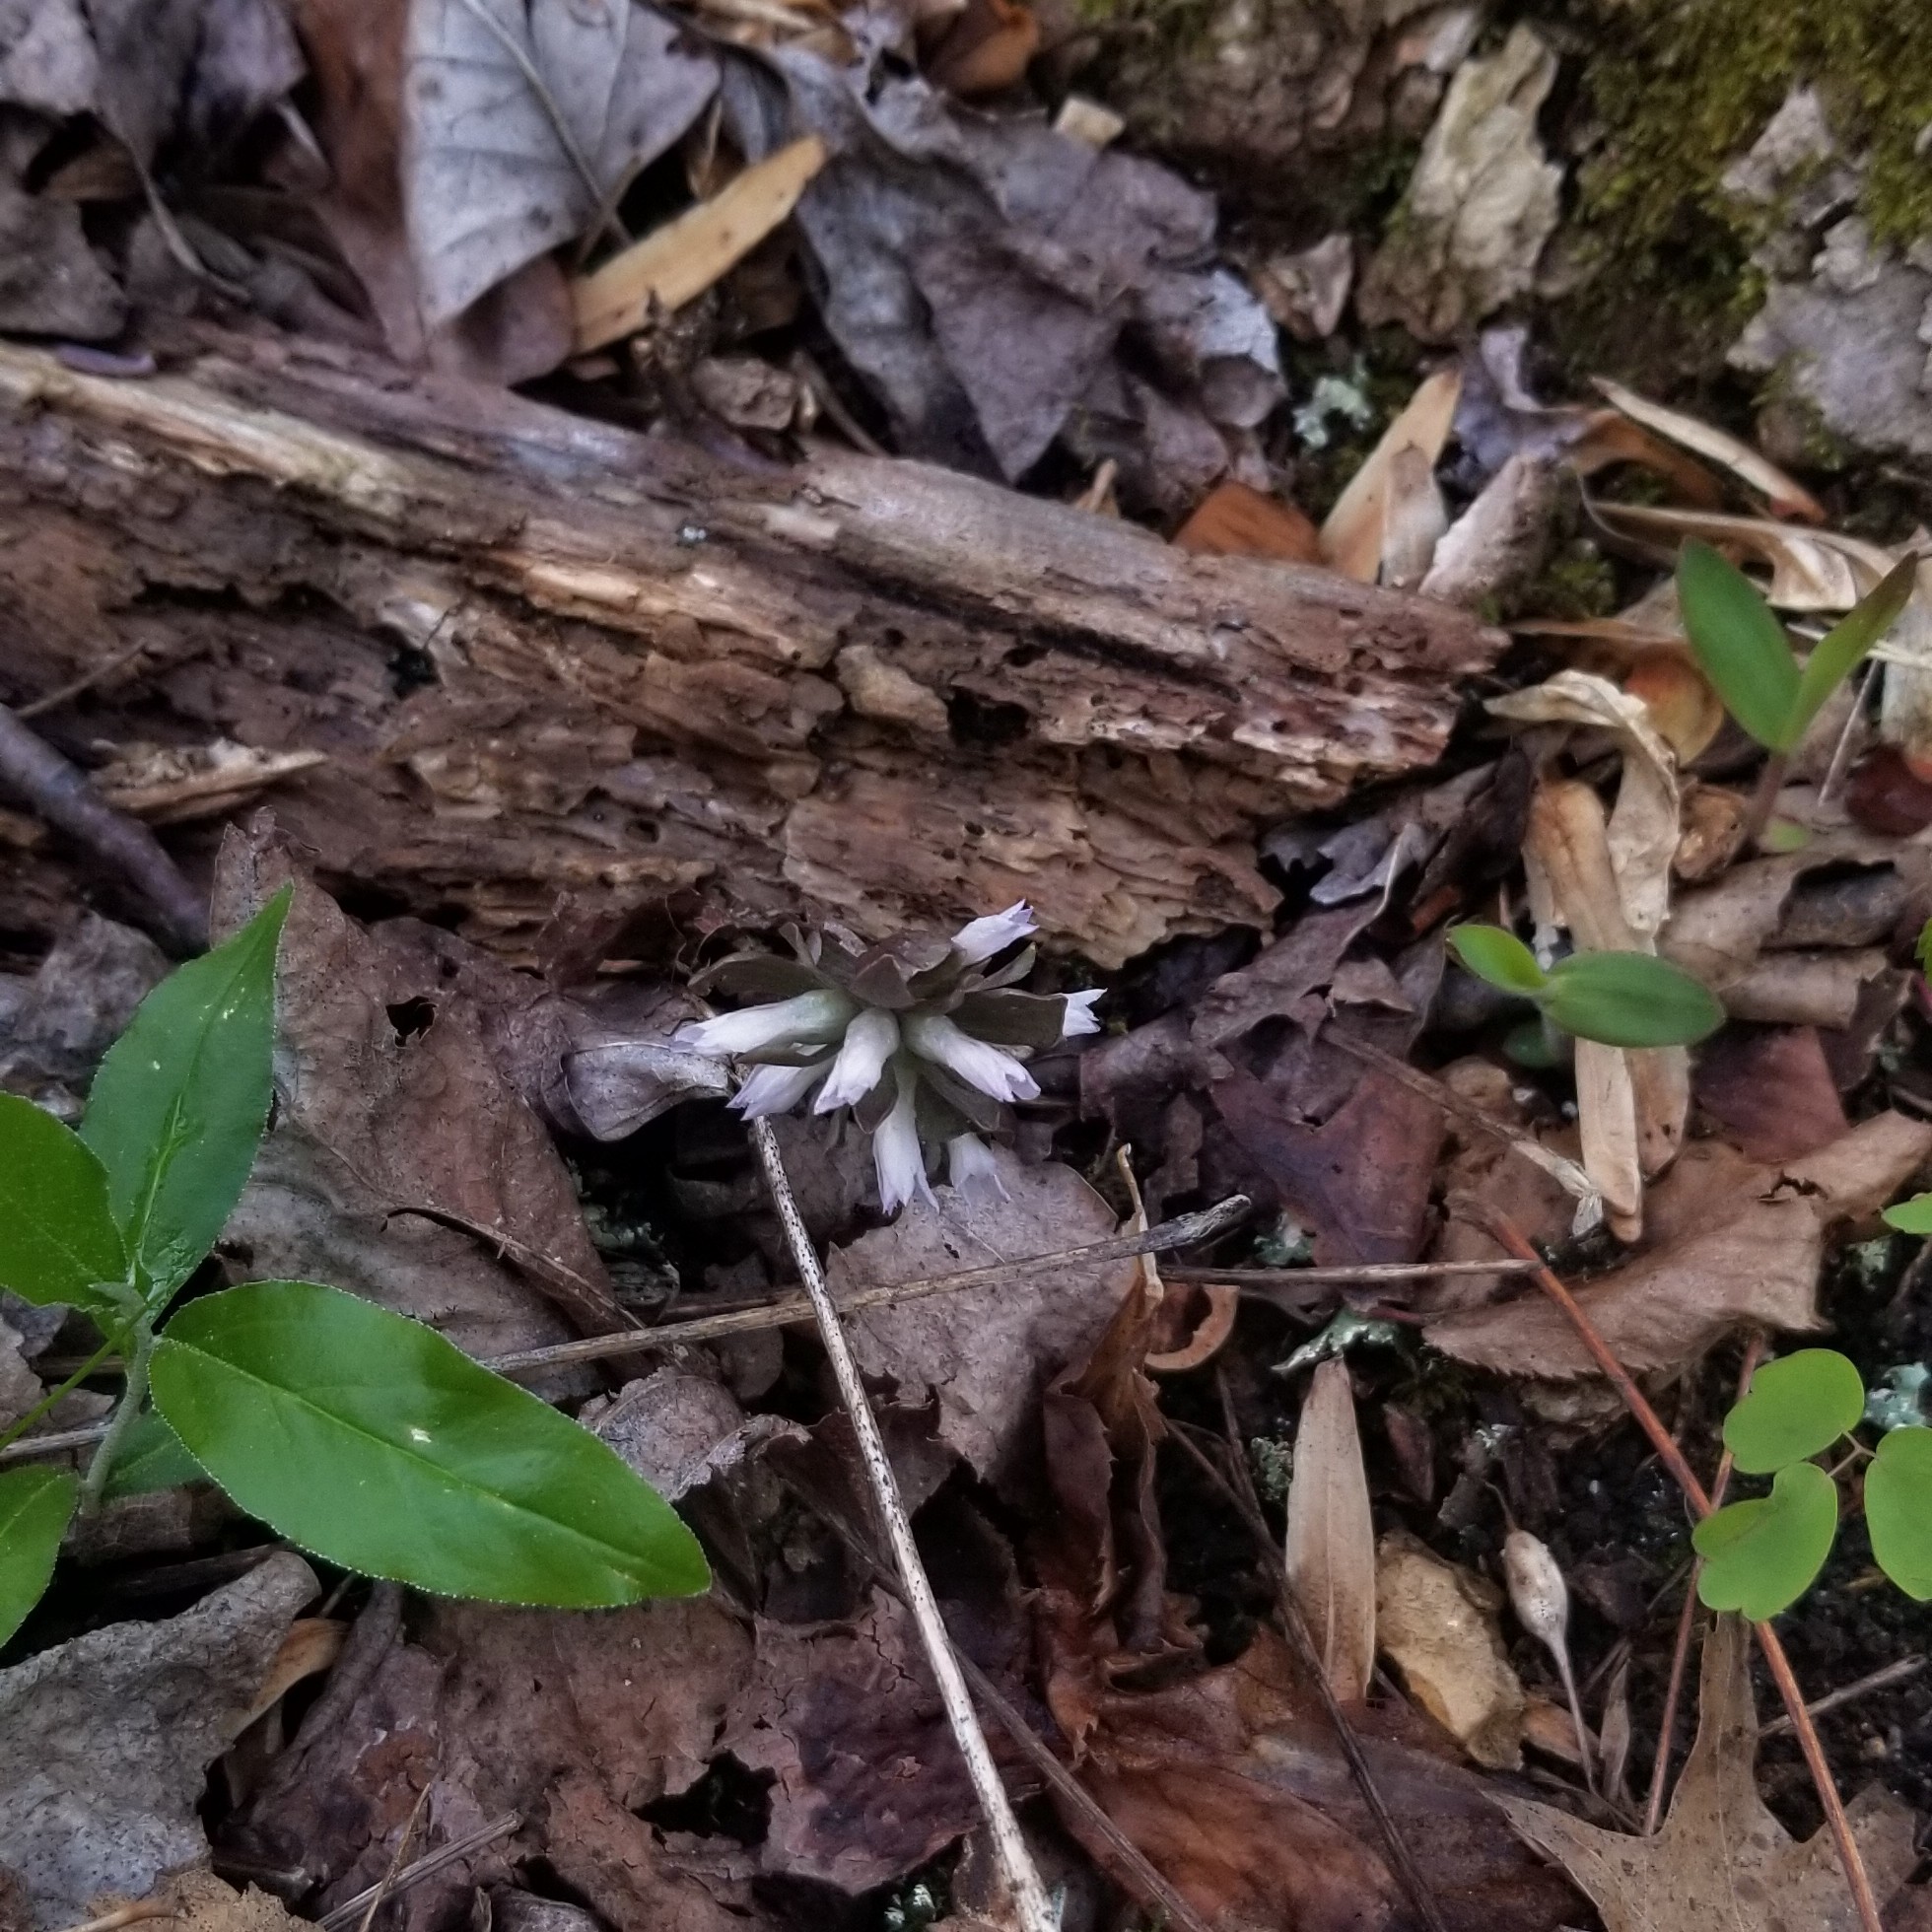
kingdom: Plantae
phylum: Tracheophyta
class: Magnoliopsida
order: Gentianales
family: Gentianaceae
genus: Obolaria
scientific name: Obolaria virginica
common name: Pennywort
